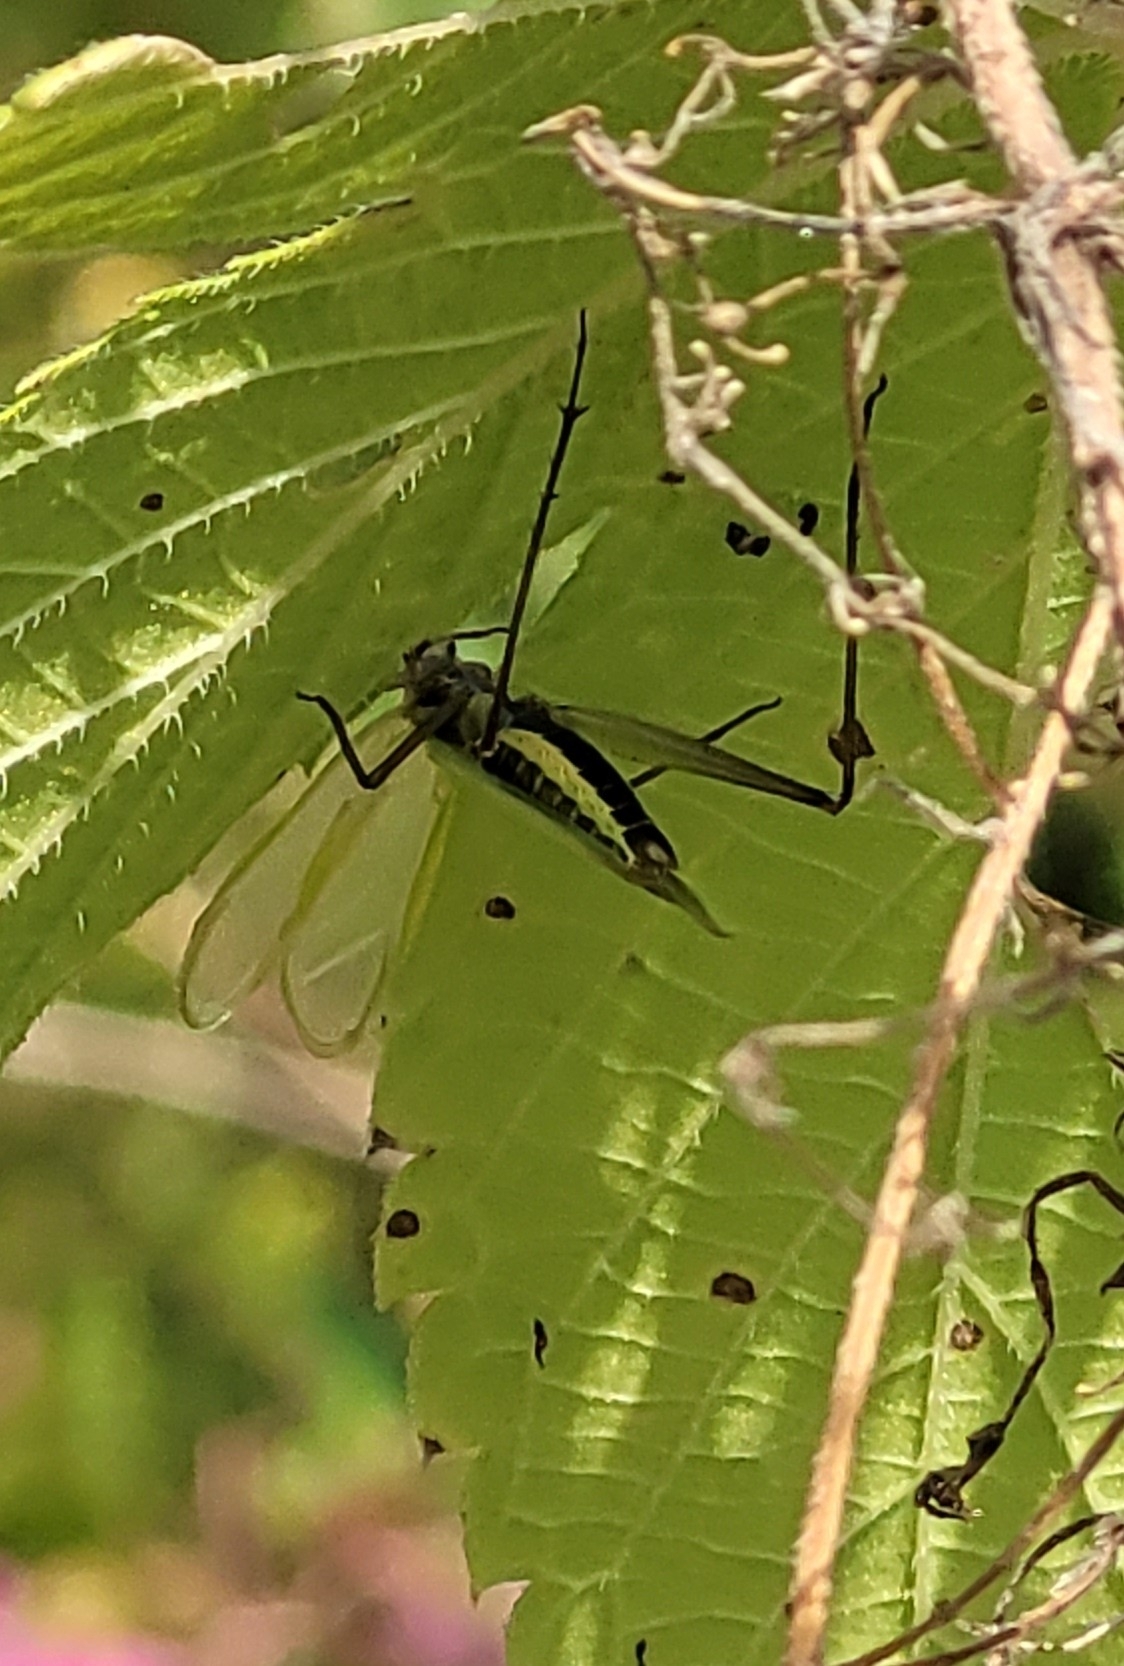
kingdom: Animalia
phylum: Arthropoda
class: Insecta
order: Orthoptera
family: Gryllidae
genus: Oecanthus
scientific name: Oecanthus longicauda
